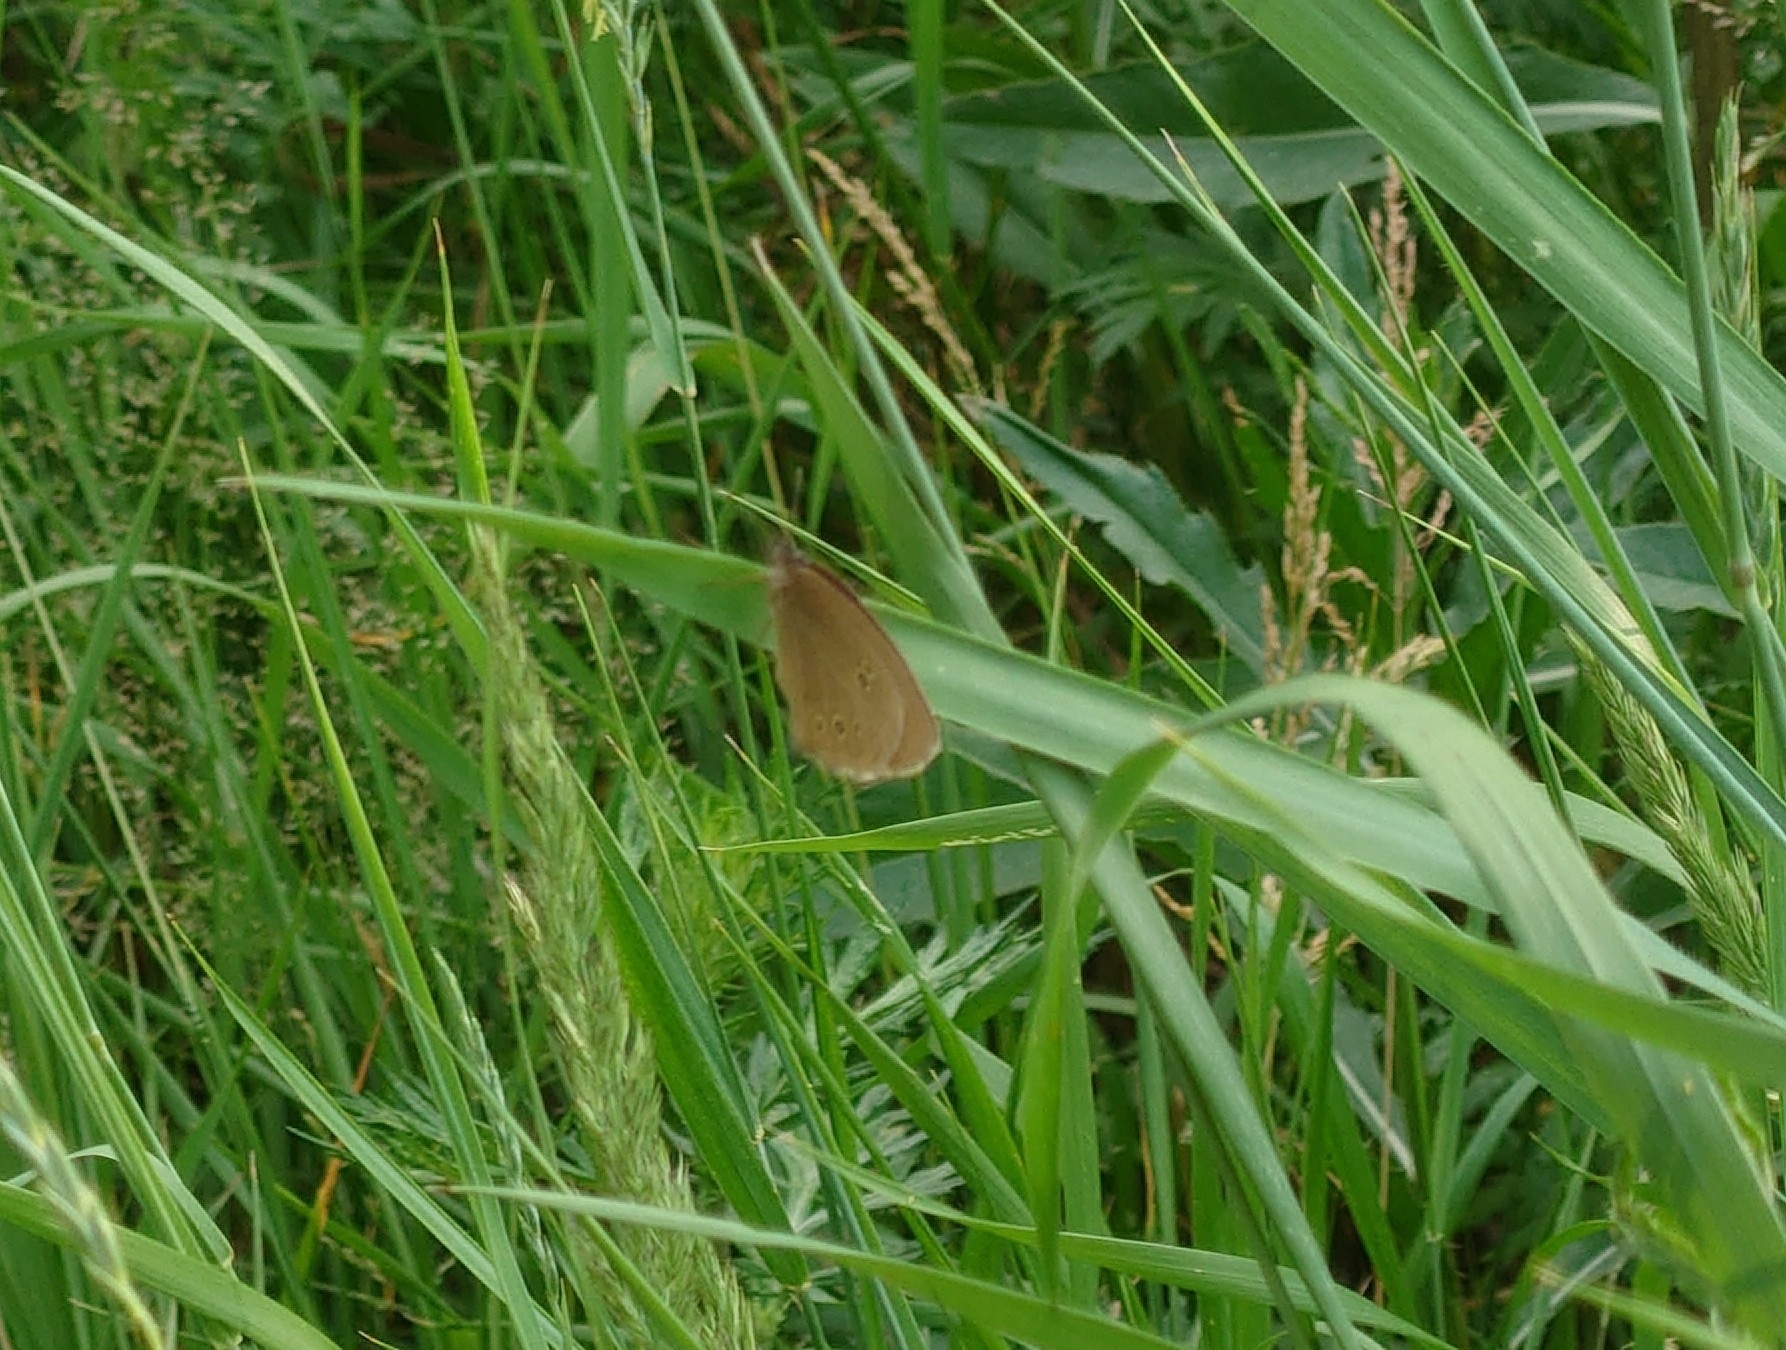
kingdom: Animalia
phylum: Arthropoda
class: Insecta
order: Lepidoptera
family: Nymphalidae
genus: Aphantopus
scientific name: Aphantopus hyperantus
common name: Ringlet
